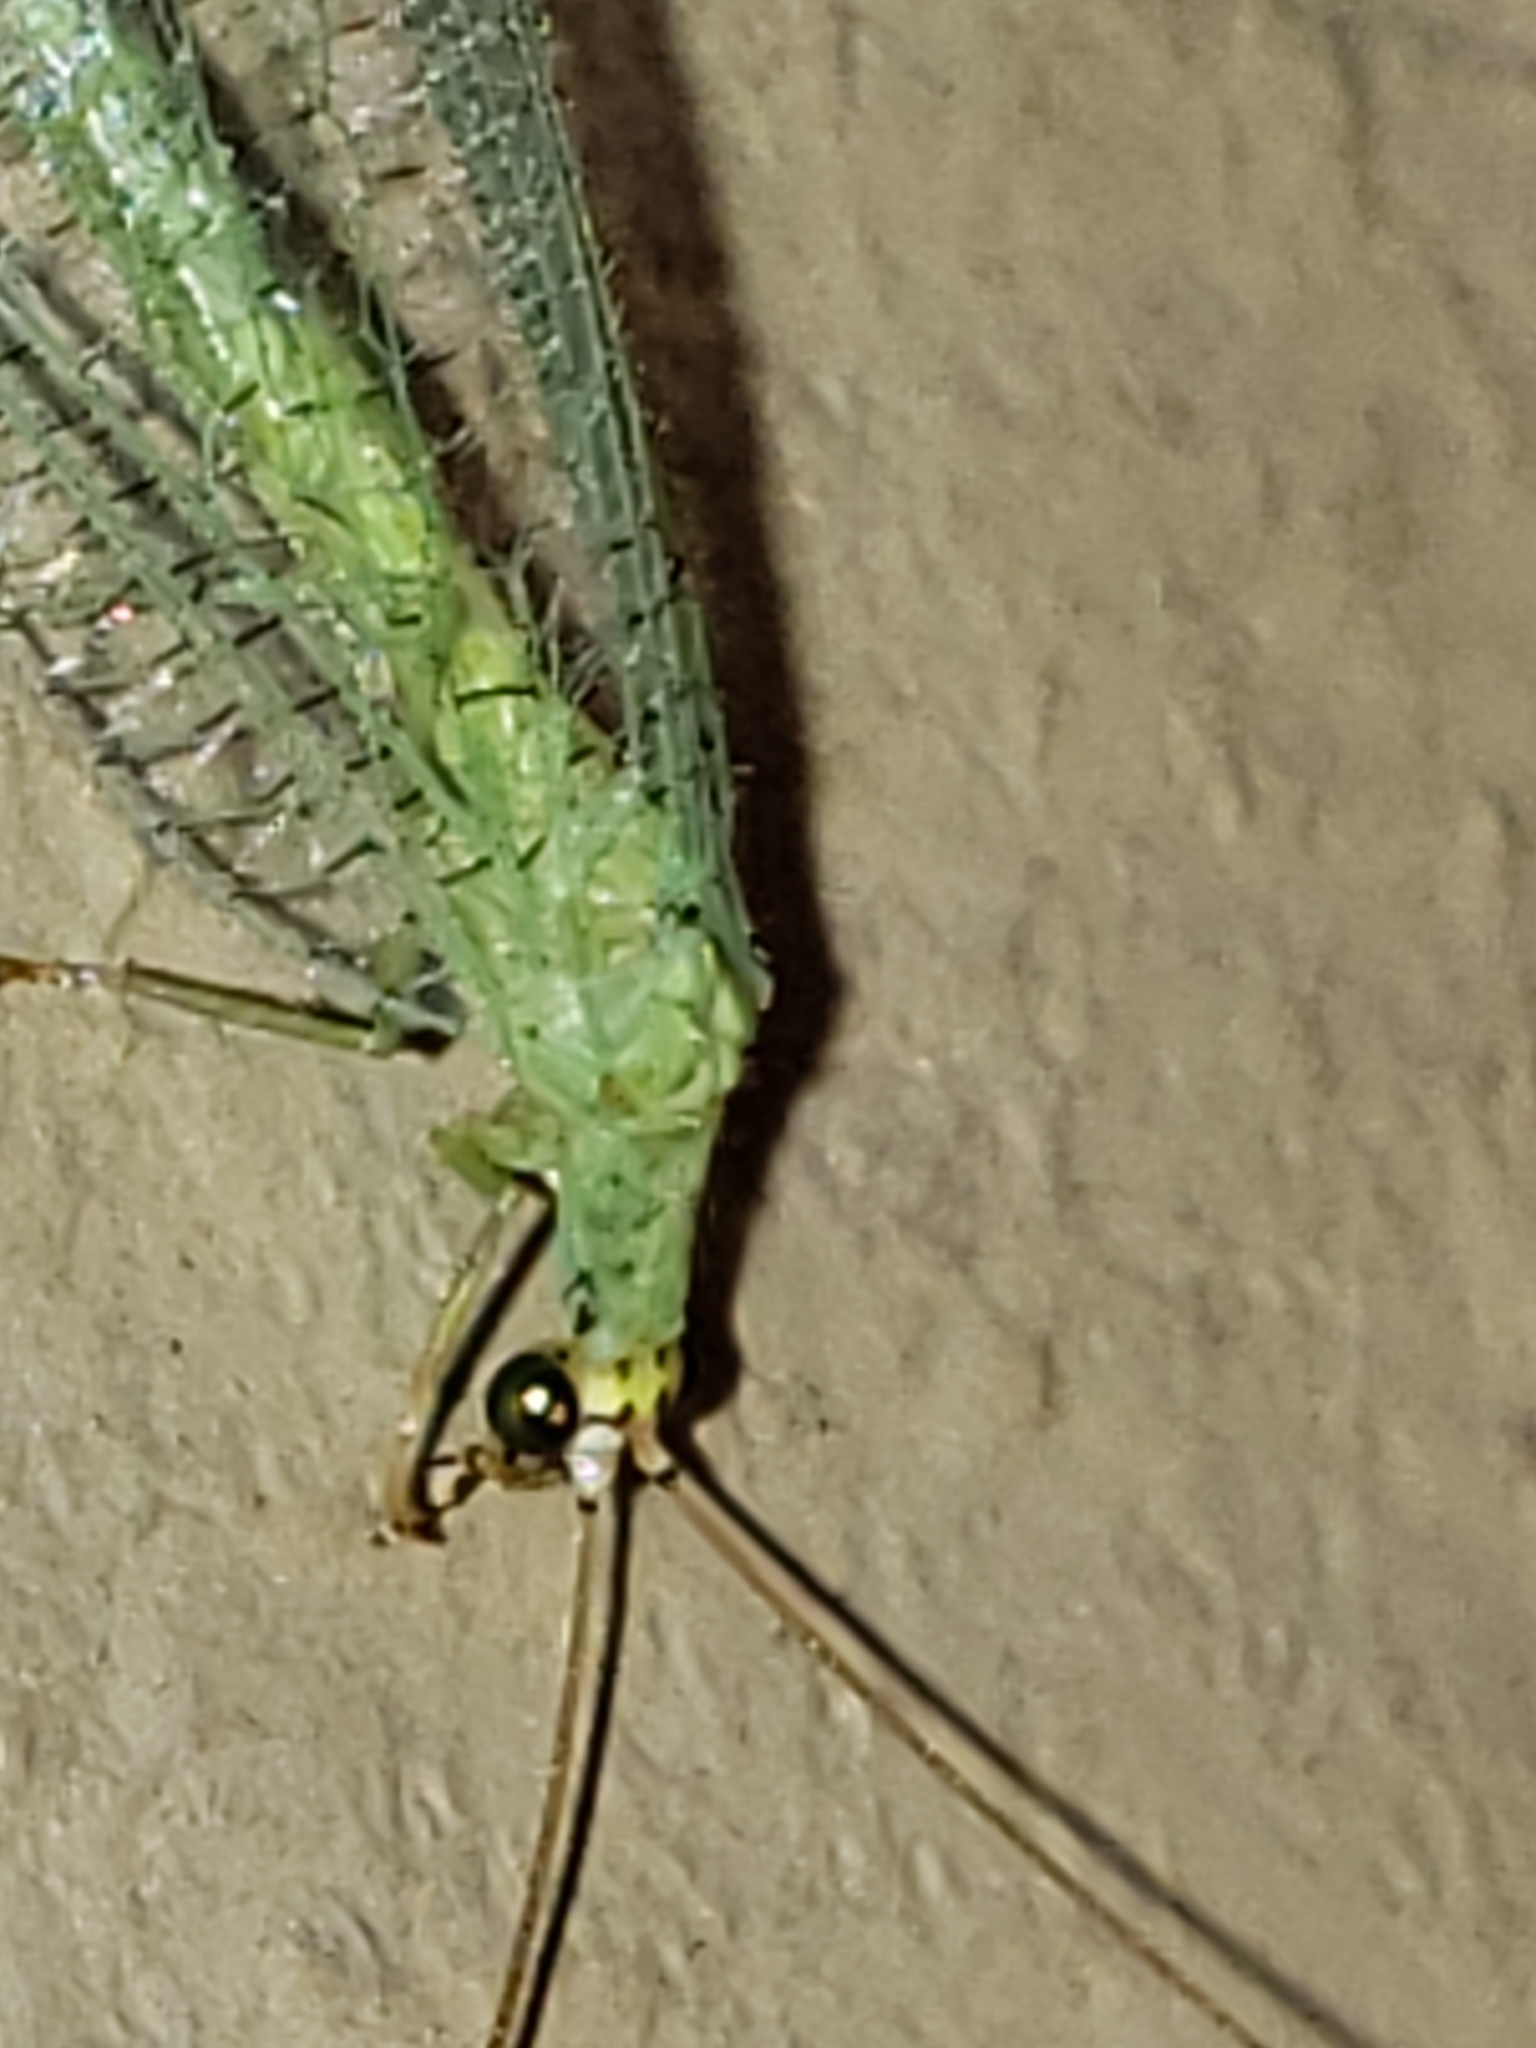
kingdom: Animalia
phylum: Arthropoda
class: Insecta
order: Neuroptera
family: Chrysopidae
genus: Chrysopa
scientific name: Chrysopa oculata
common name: Golden-eyed lacewing
